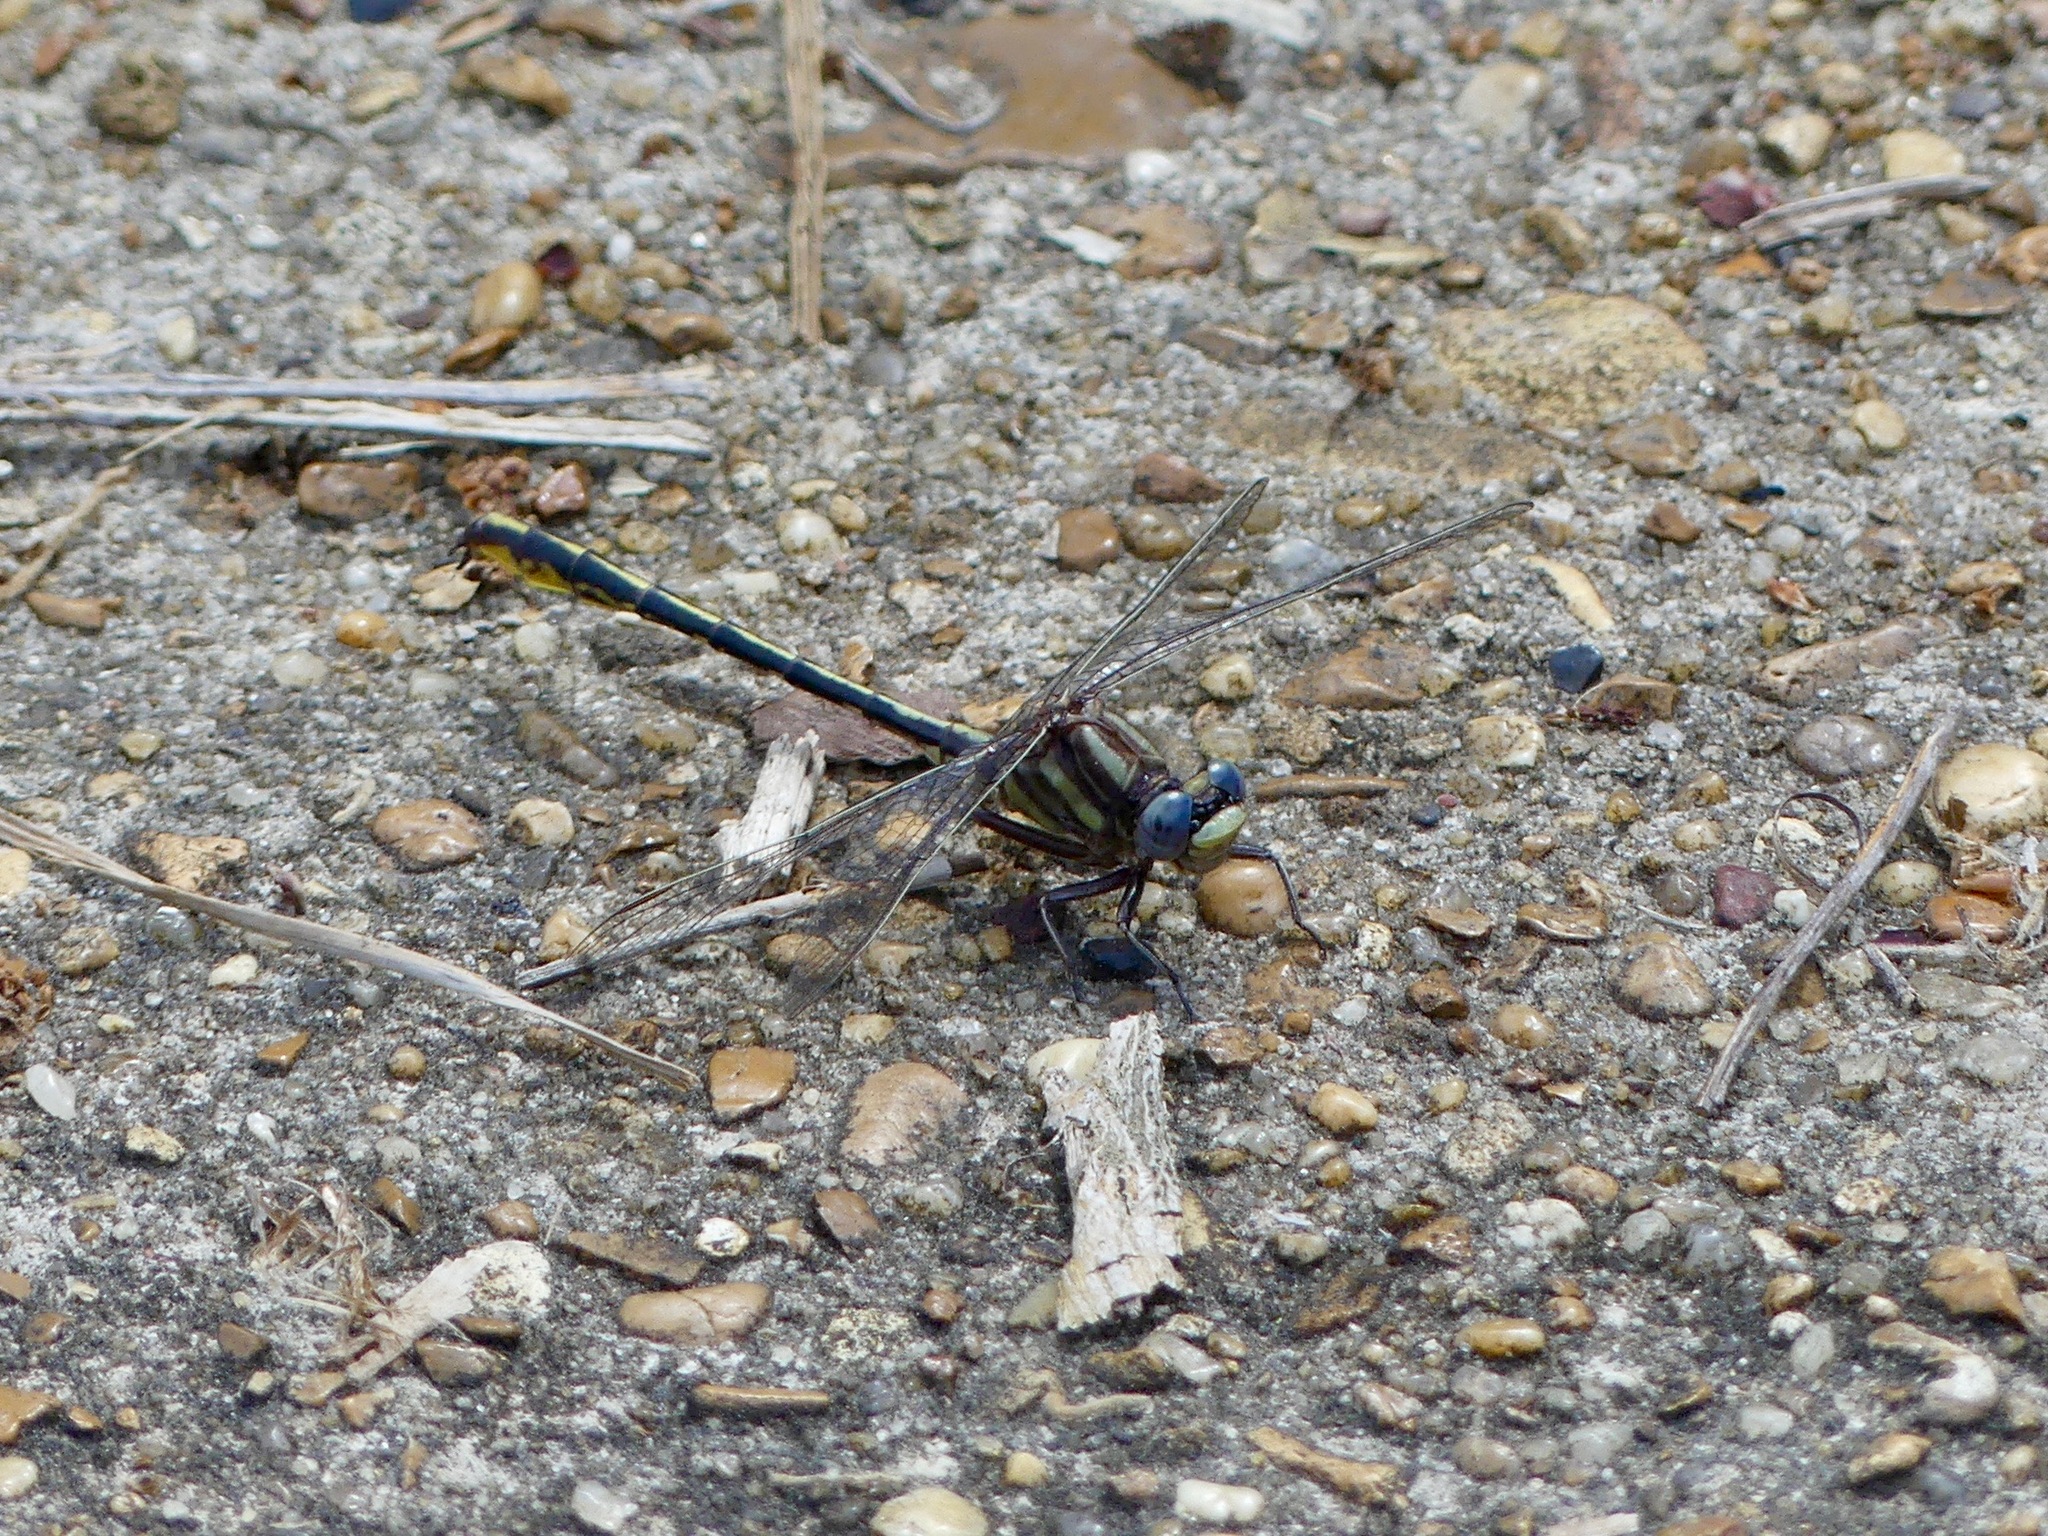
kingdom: Animalia
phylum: Arthropoda
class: Insecta
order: Odonata
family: Gomphidae
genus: Phanogomphus
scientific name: Phanogomphus oklahomensis
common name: Oklahoma clubtail
